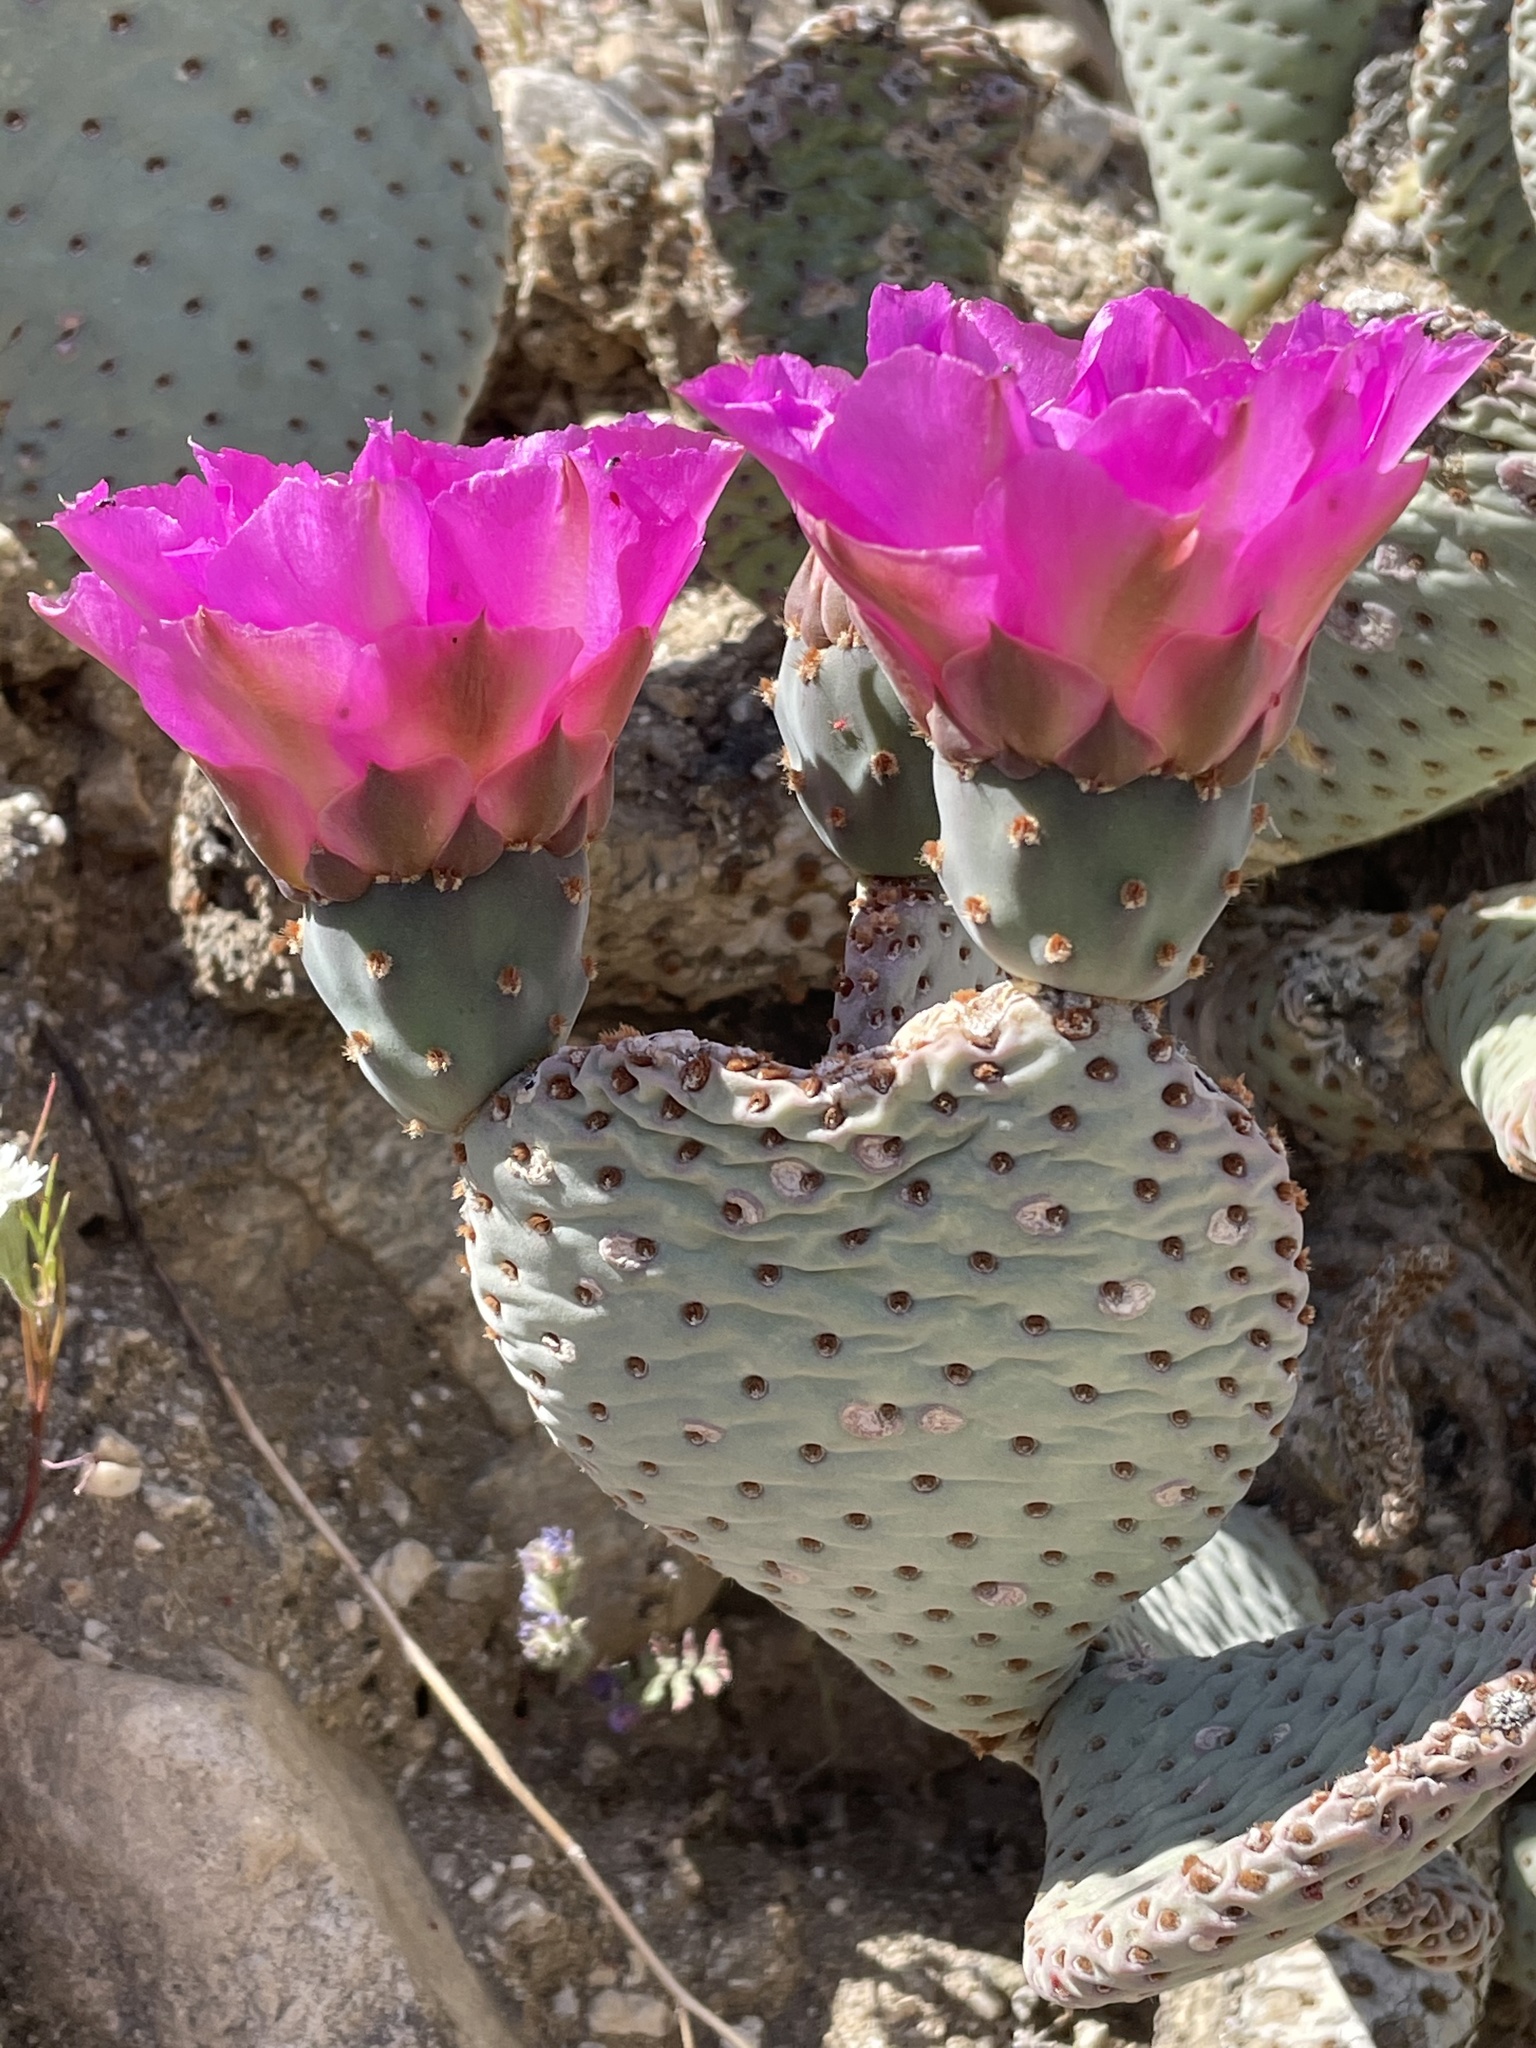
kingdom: Plantae
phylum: Tracheophyta
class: Magnoliopsida
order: Caryophyllales
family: Cactaceae
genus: Opuntia
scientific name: Opuntia basilaris
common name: Beavertail prickly-pear
